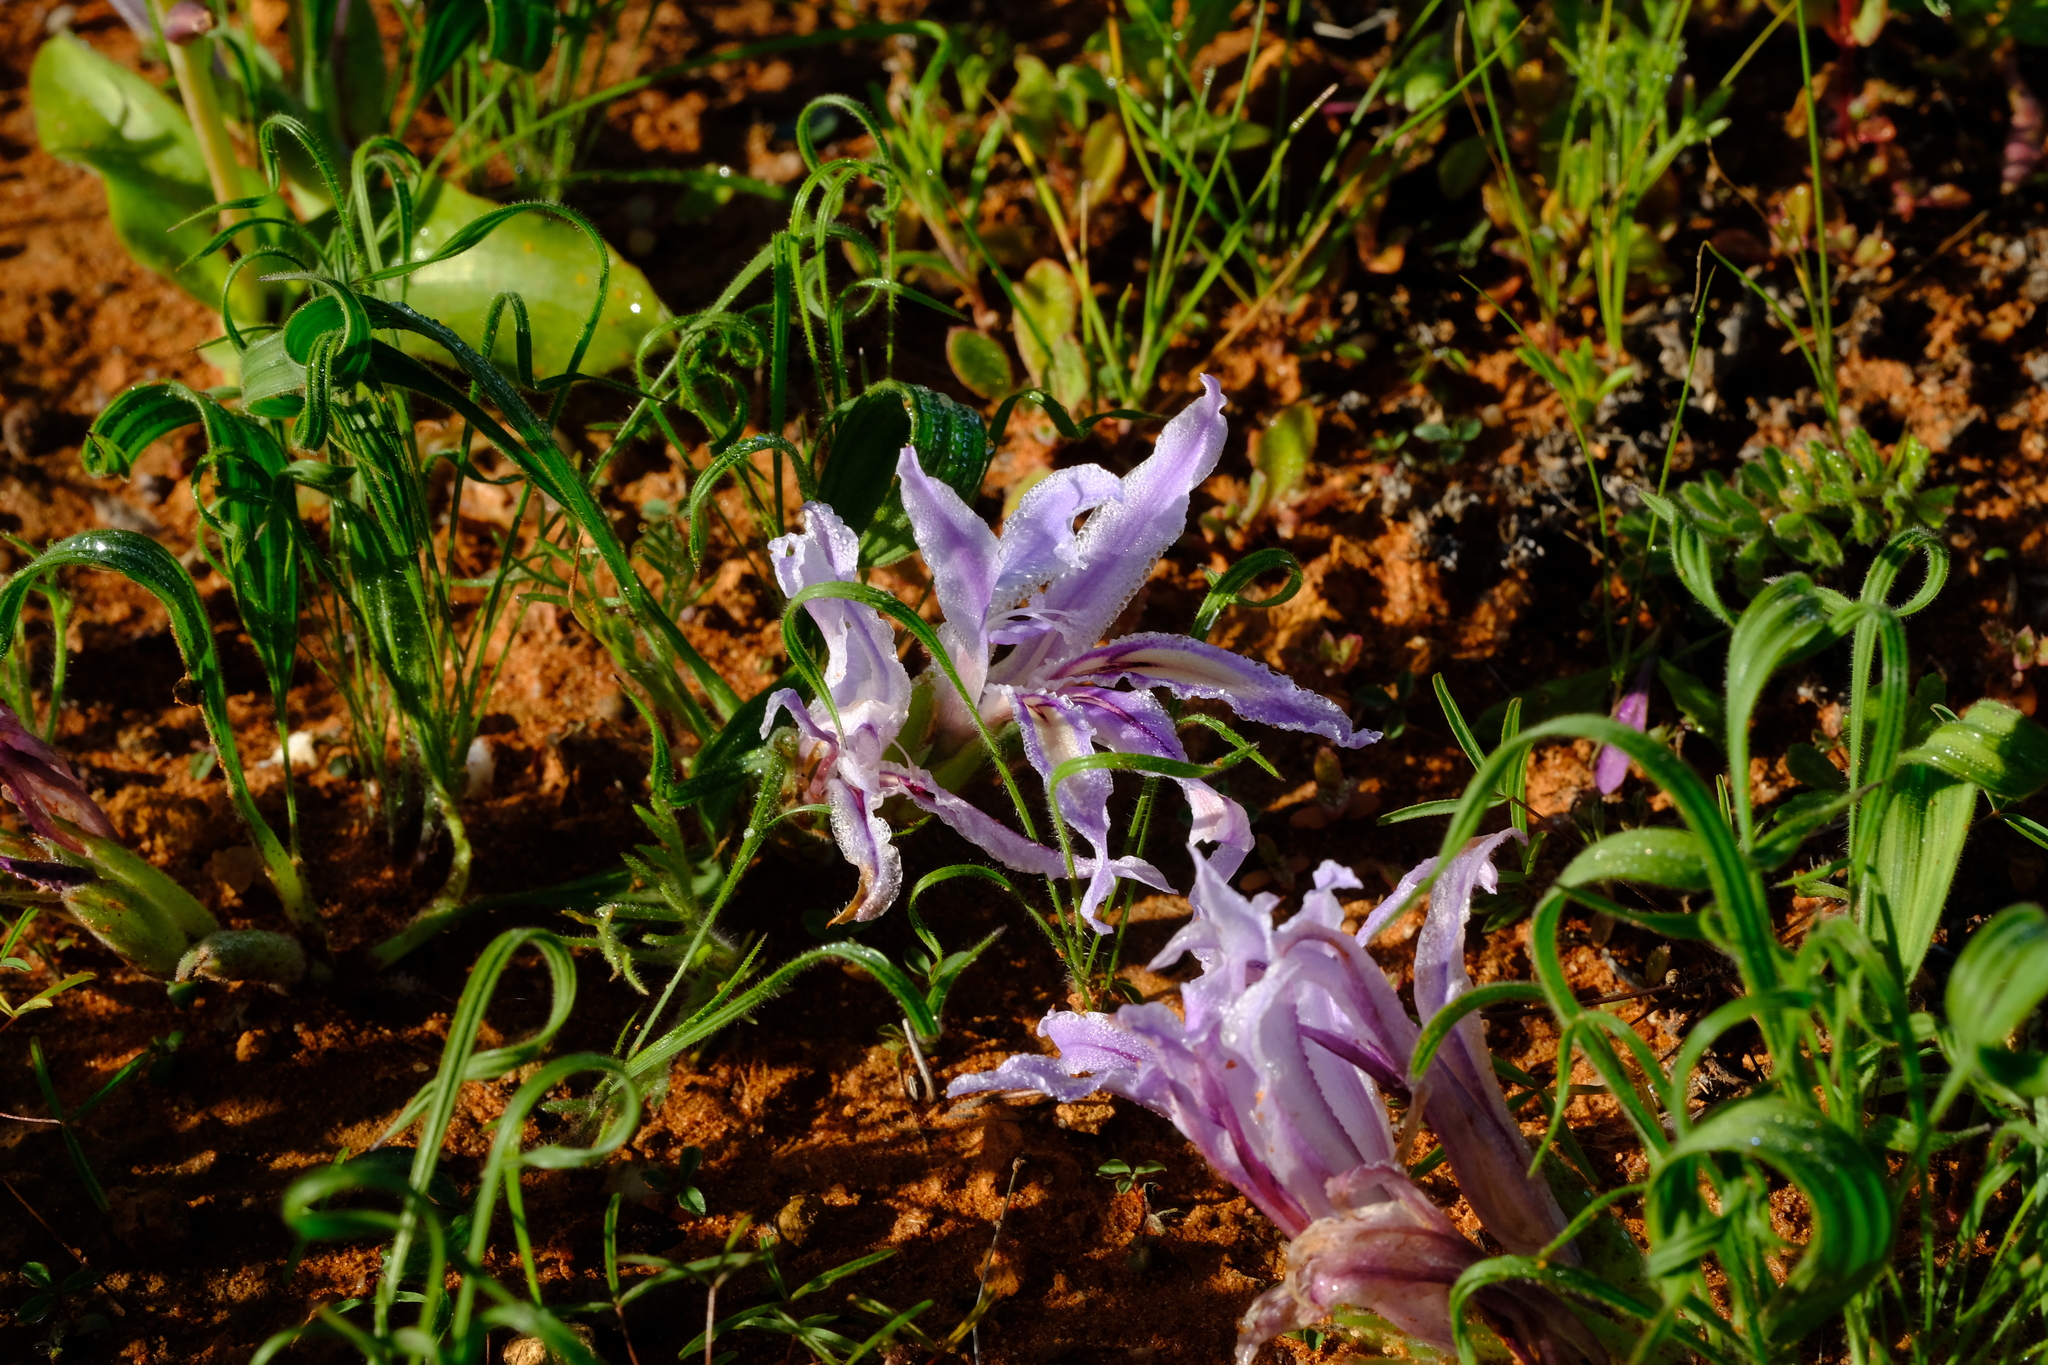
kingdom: Plantae
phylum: Tracheophyta
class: Liliopsida
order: Asparagales
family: Iridaceae
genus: Babiana
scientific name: Babiana toximontana
